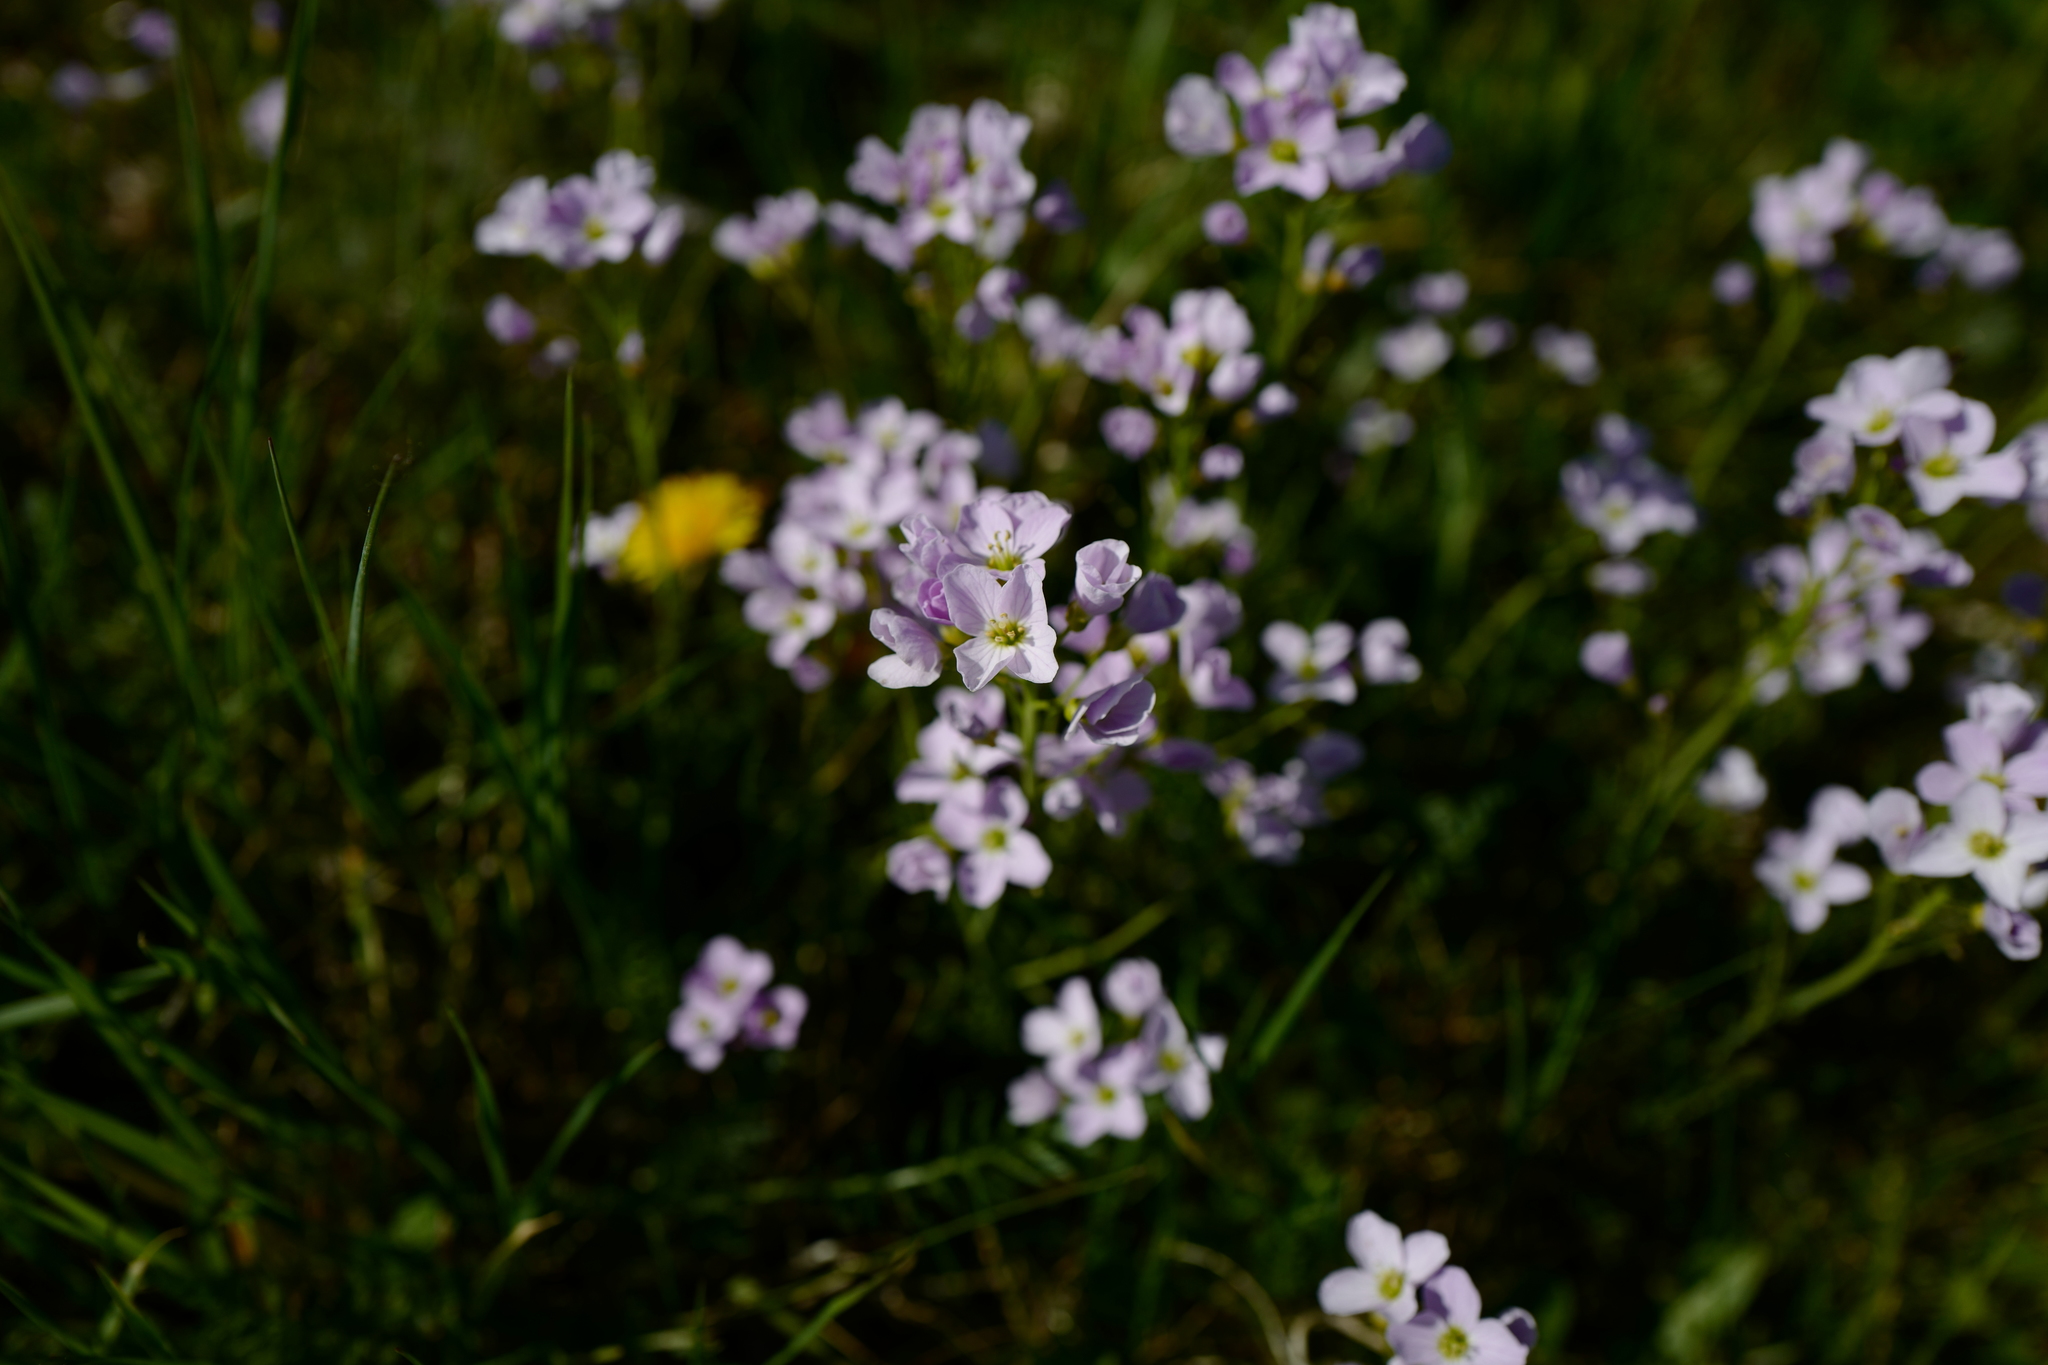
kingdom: Plantae
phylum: Tracheophyta
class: Magnoliopsida
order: Brassicales
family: Brassicaceae
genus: Cardamine
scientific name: Cardamine pratensis
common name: Cuckoo flower
